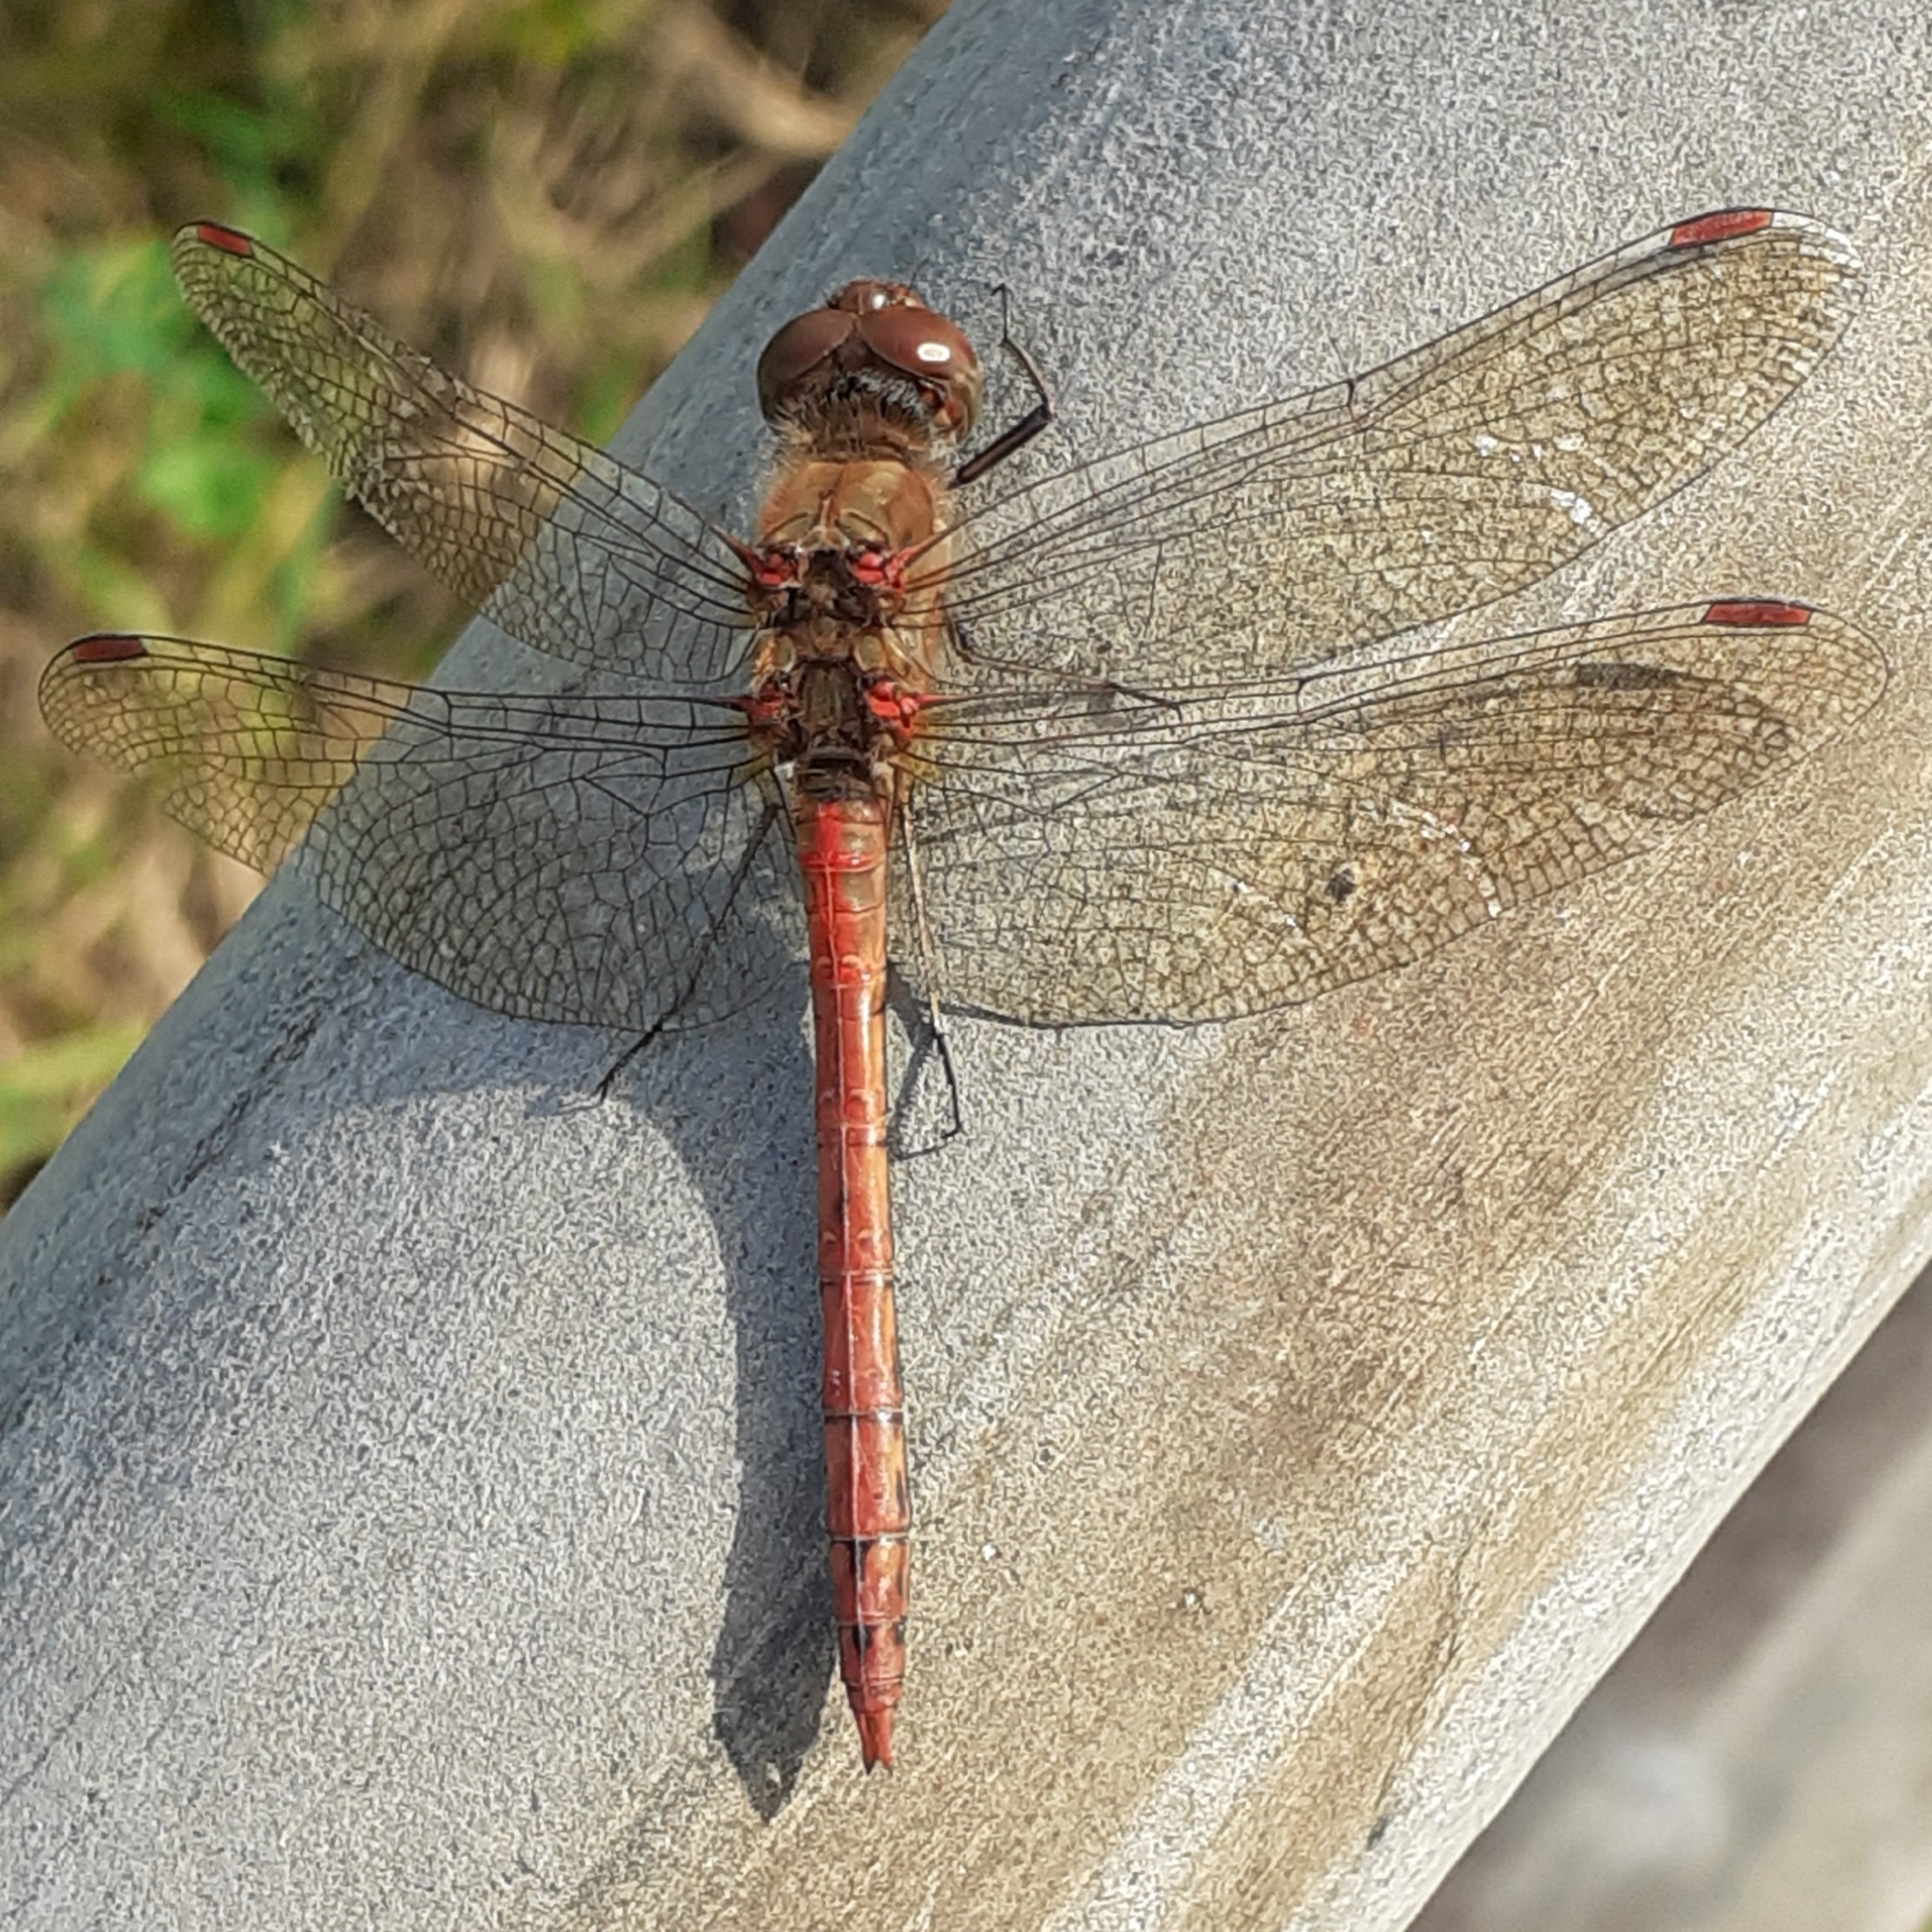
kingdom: Animalia
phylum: Arthropoda
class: Insecta
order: Odonata
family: Libellulidae
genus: Sympetrum
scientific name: Sympetrum striolatum
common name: Common darter
